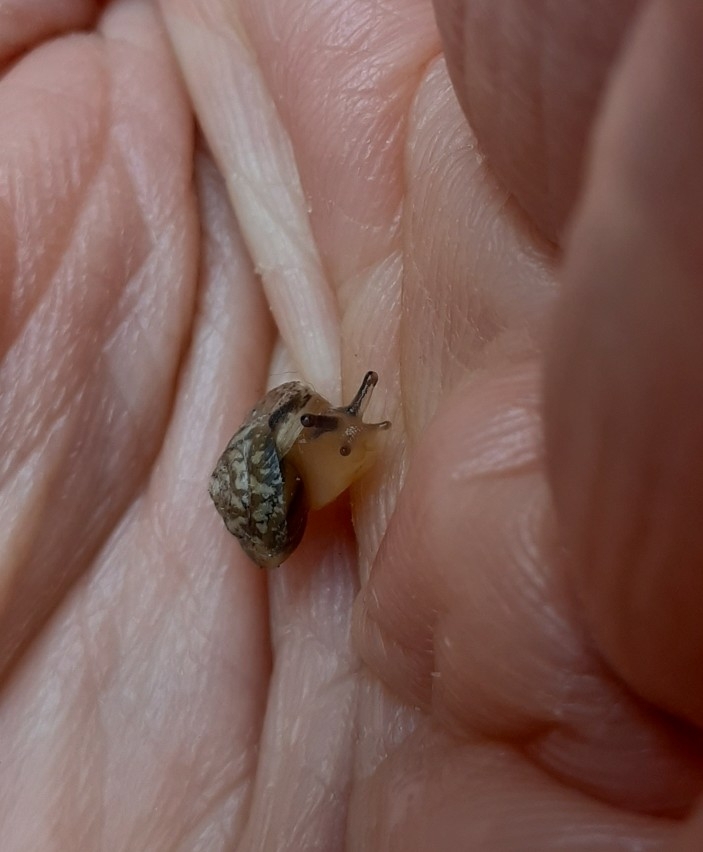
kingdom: Animalia
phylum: Mollusca
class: Gastropoda
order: Stylommatophora
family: Hygromiidae
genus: Hygromia
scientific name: Hygromia cinctella
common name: Girdled snail
